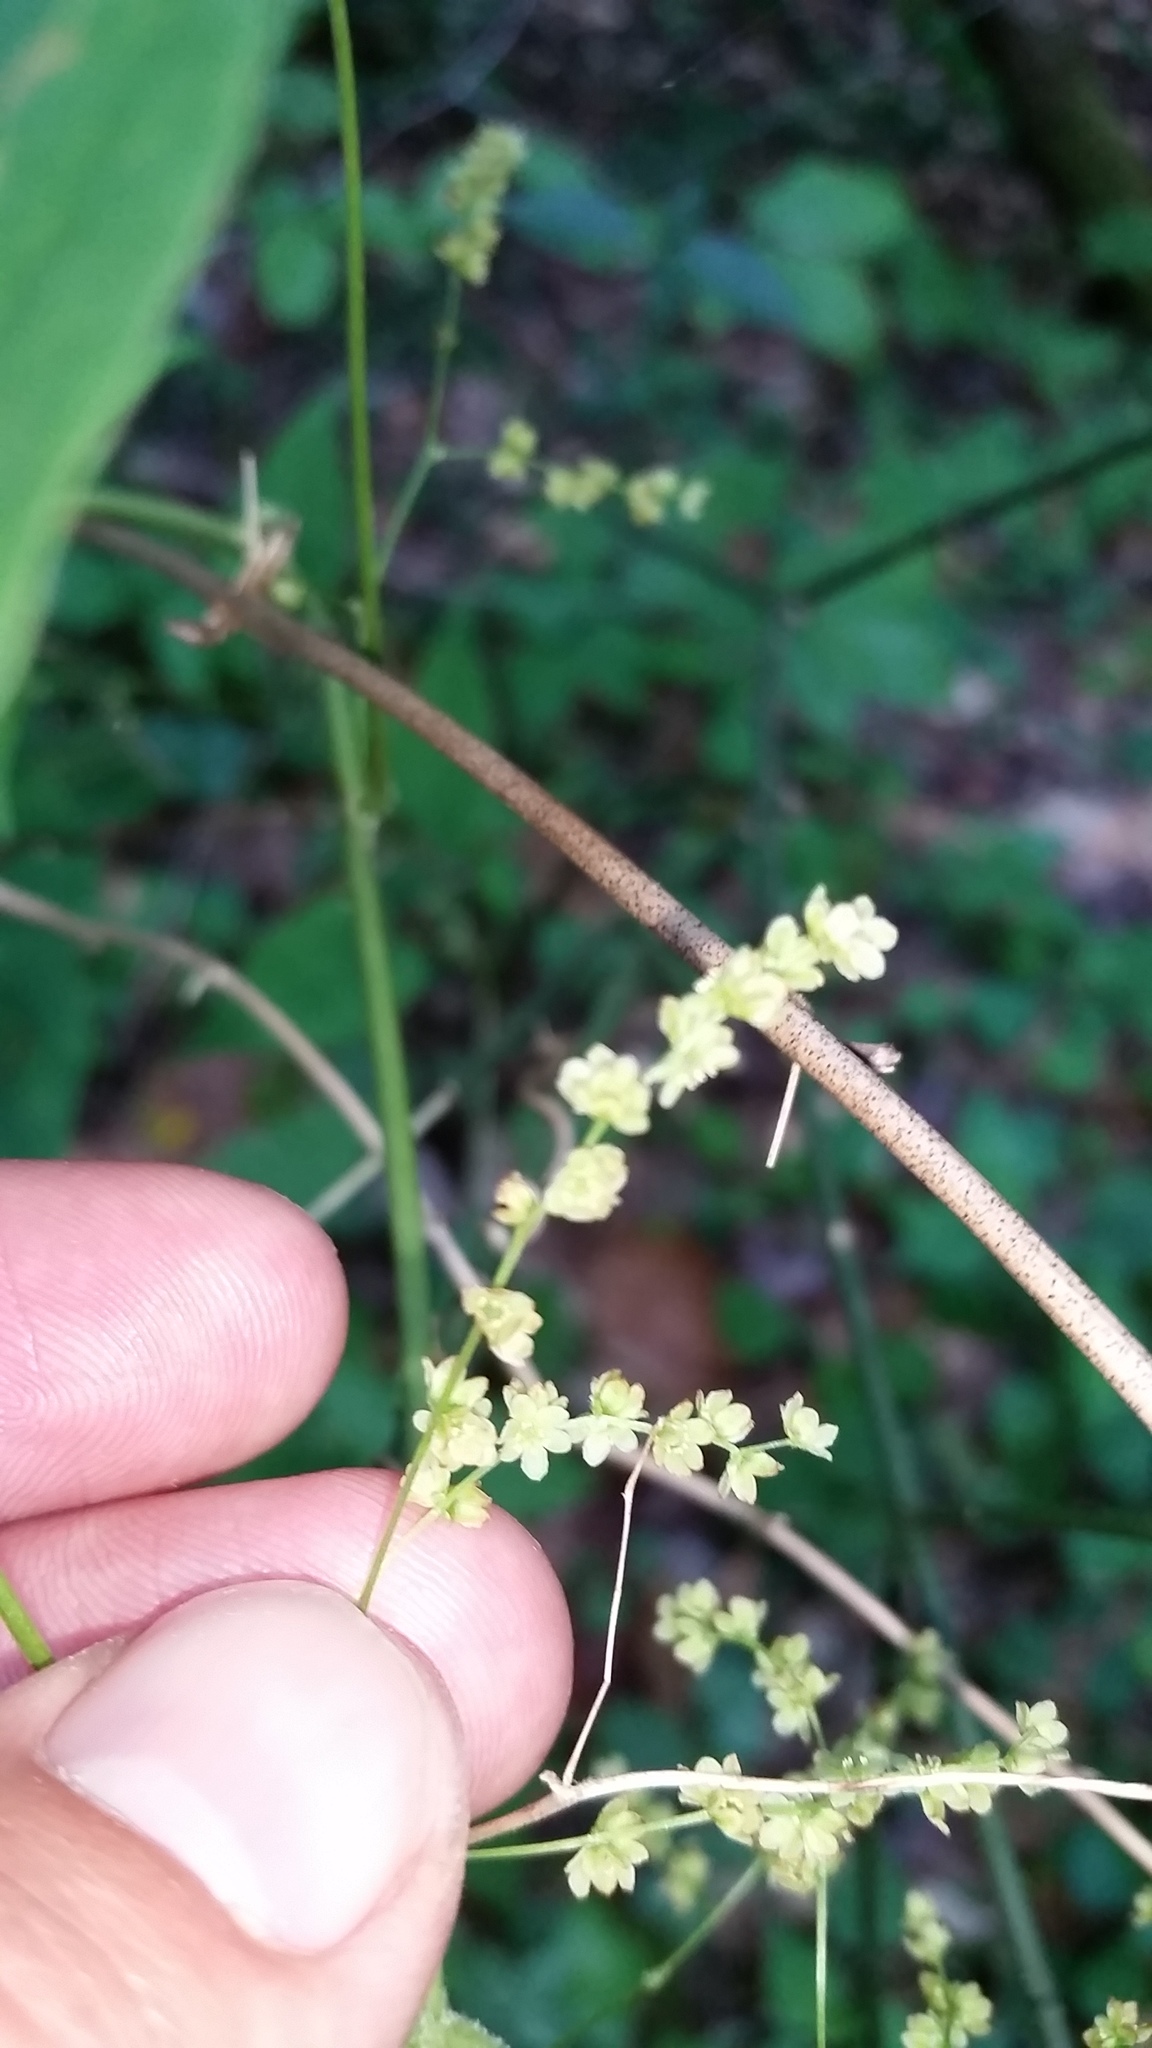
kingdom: Plantae
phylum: Tracheophyta
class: Liliopsida
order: Dioscoreales
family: Dioscoreaceae
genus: Dioscorea
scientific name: Dioscorea villosa
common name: Wild yam
